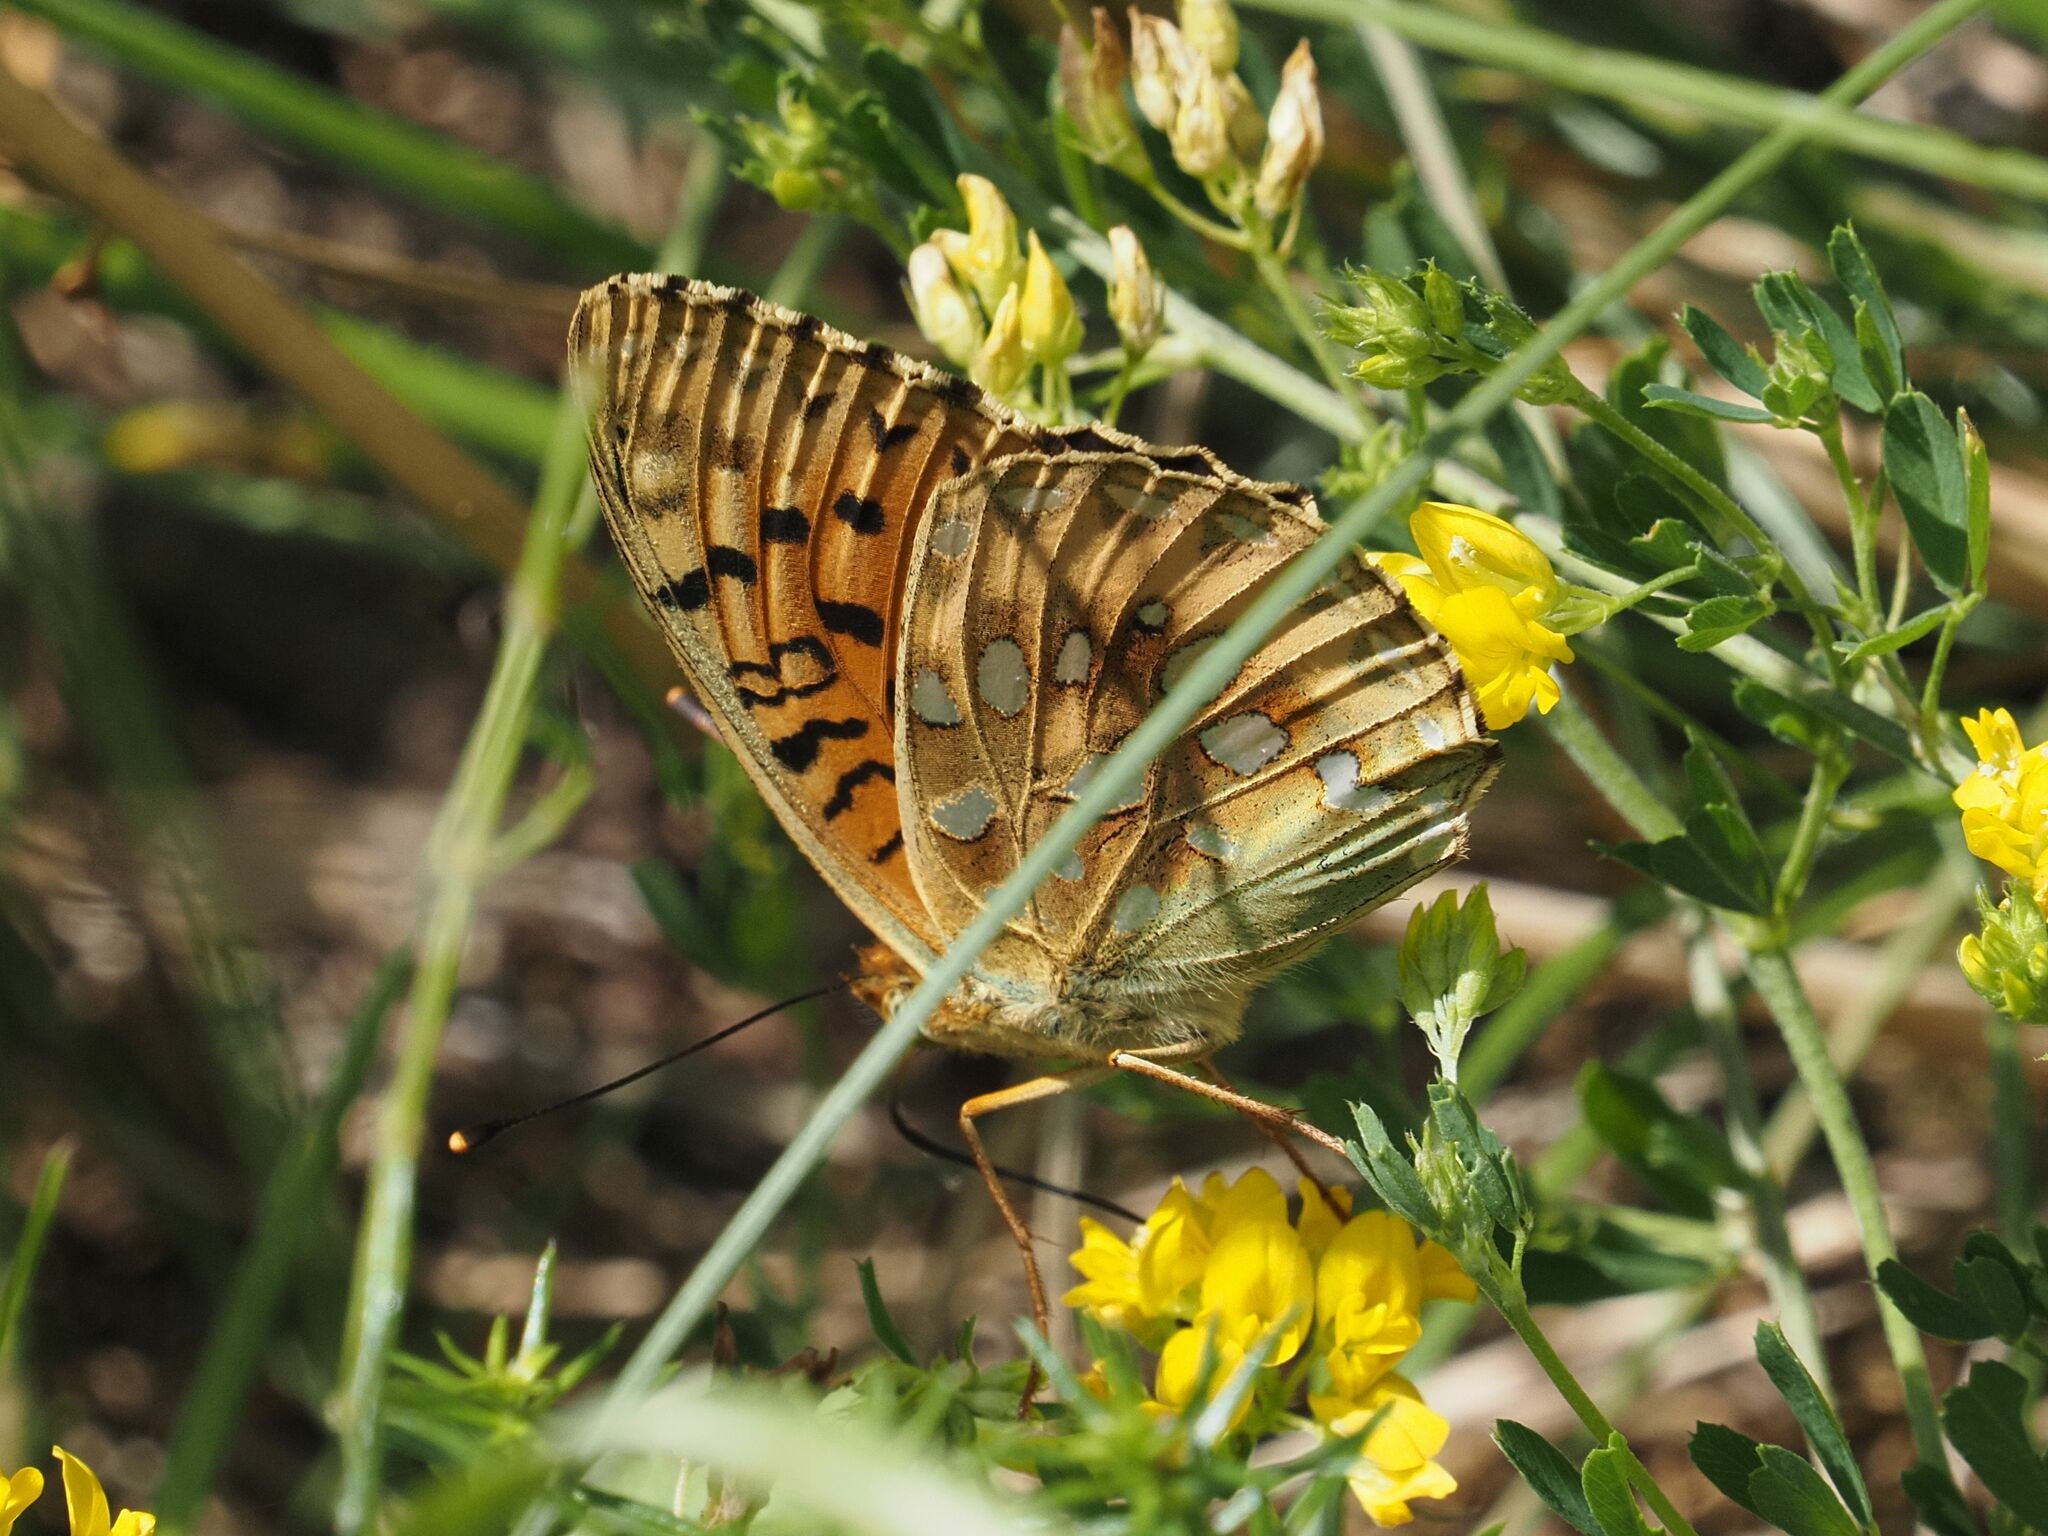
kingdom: Animalia
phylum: Arthropoda
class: Insecta
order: Lepidoptera
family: Nymphalidae
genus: Speyeria
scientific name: Speyeria aglaja
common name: Dark green fritillary
